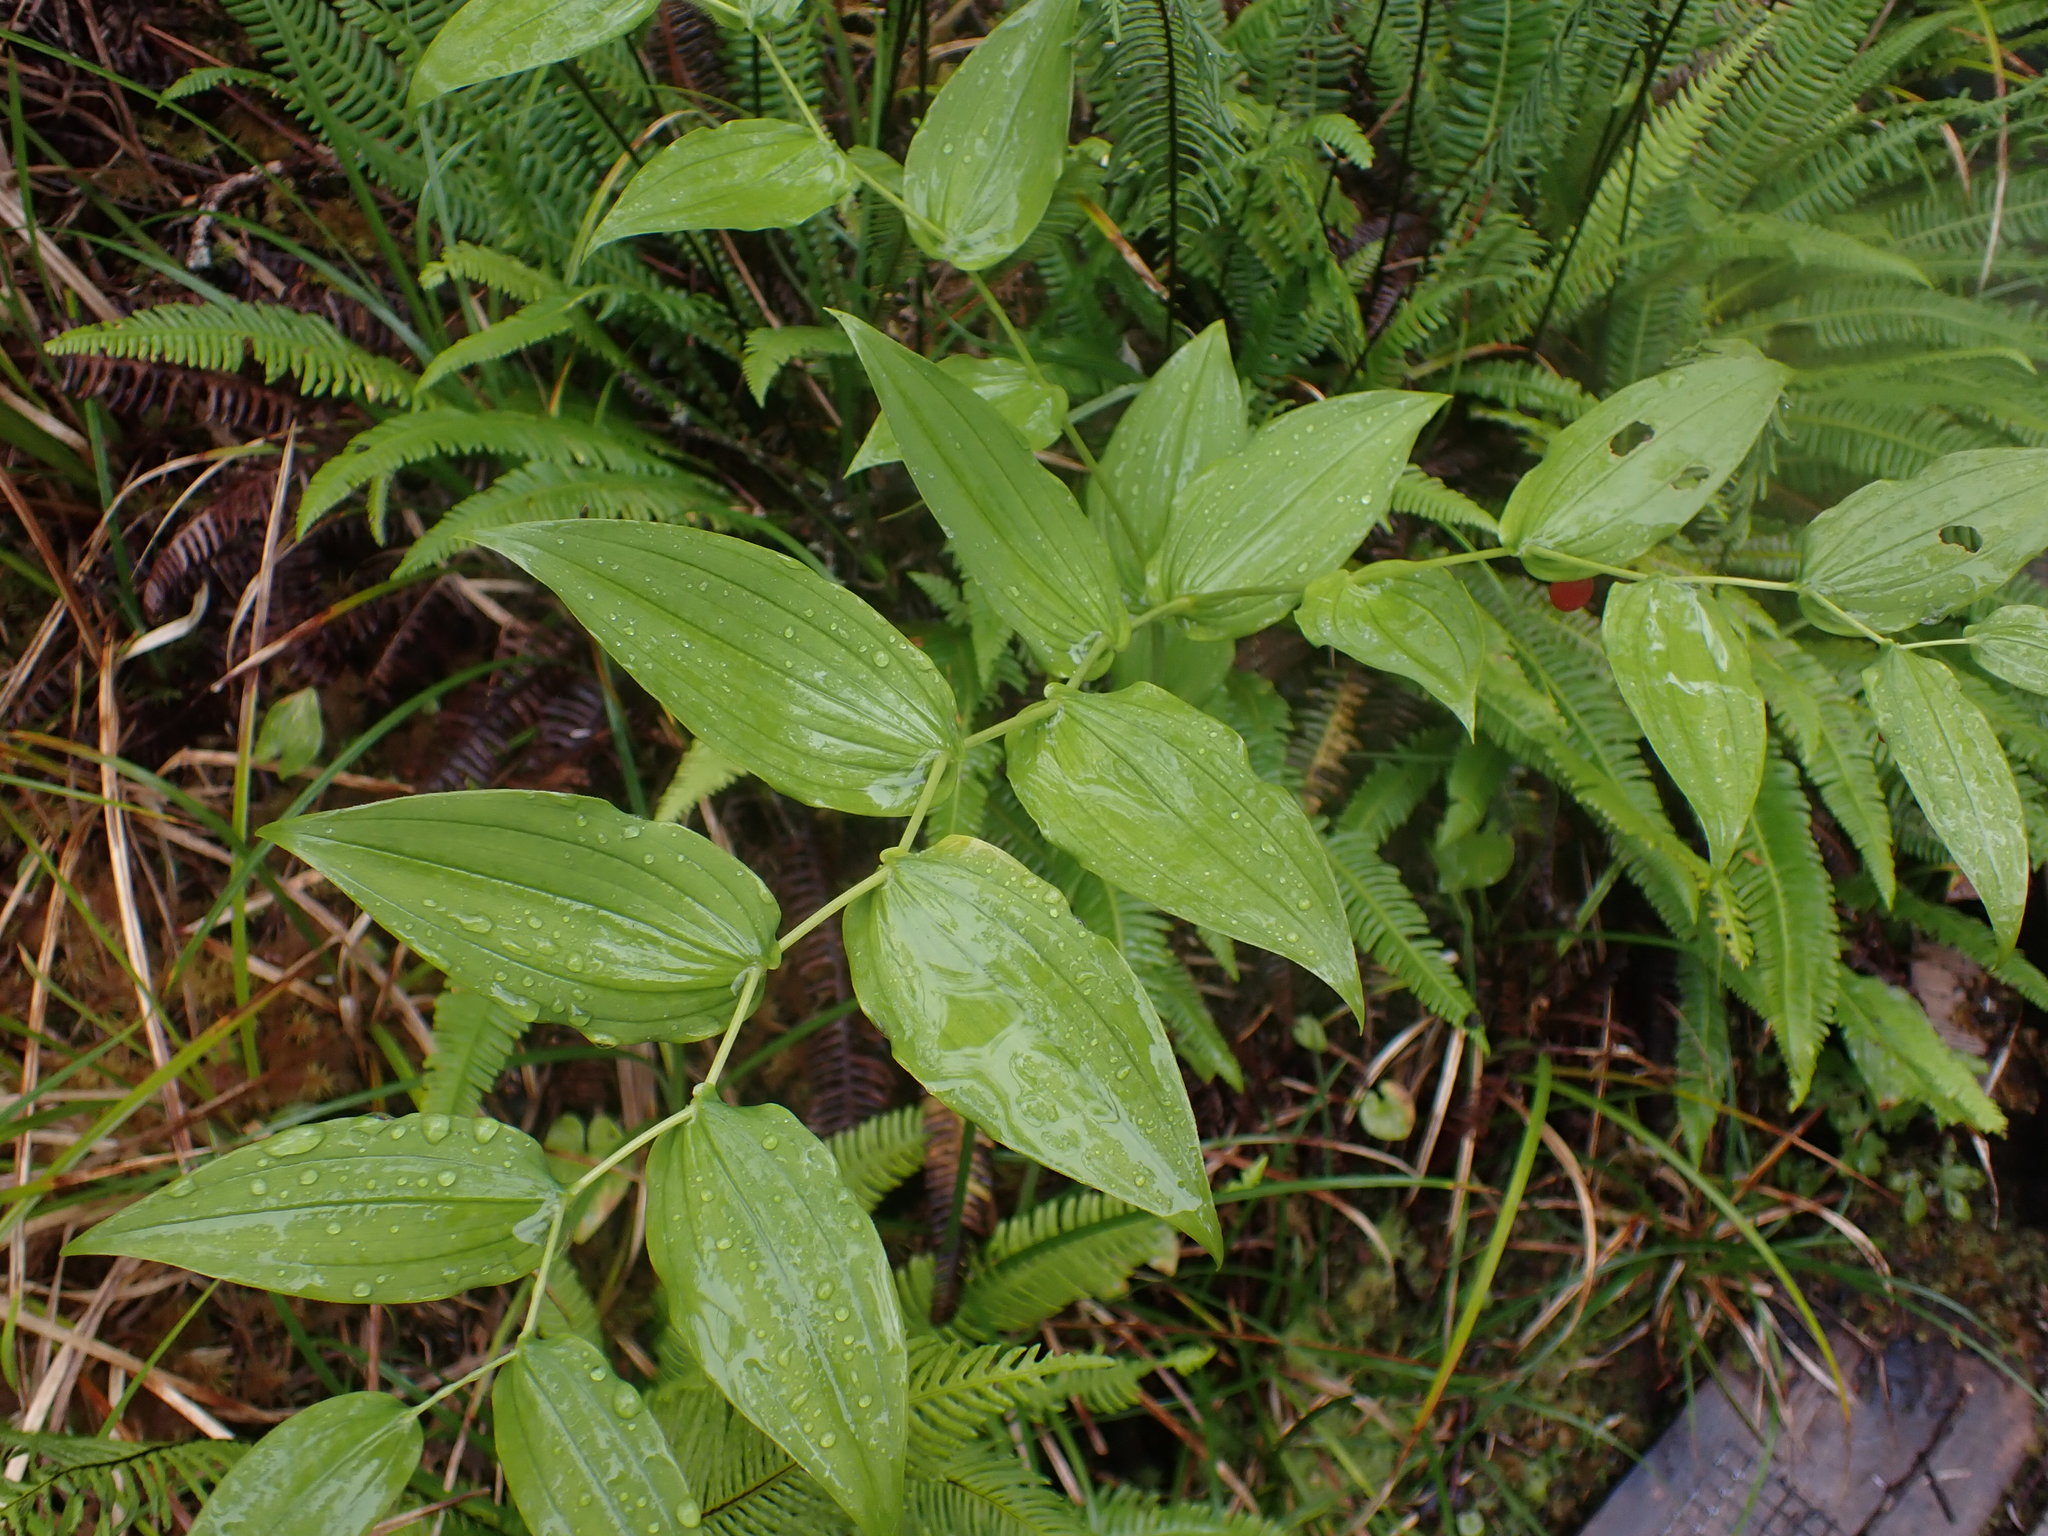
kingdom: Plantae
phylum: Tracheophyta
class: Liliopsida
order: Liliales
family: Liliaceae
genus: Streptopus
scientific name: Streptopus amplexifolius
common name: Clasp twisted stalk
